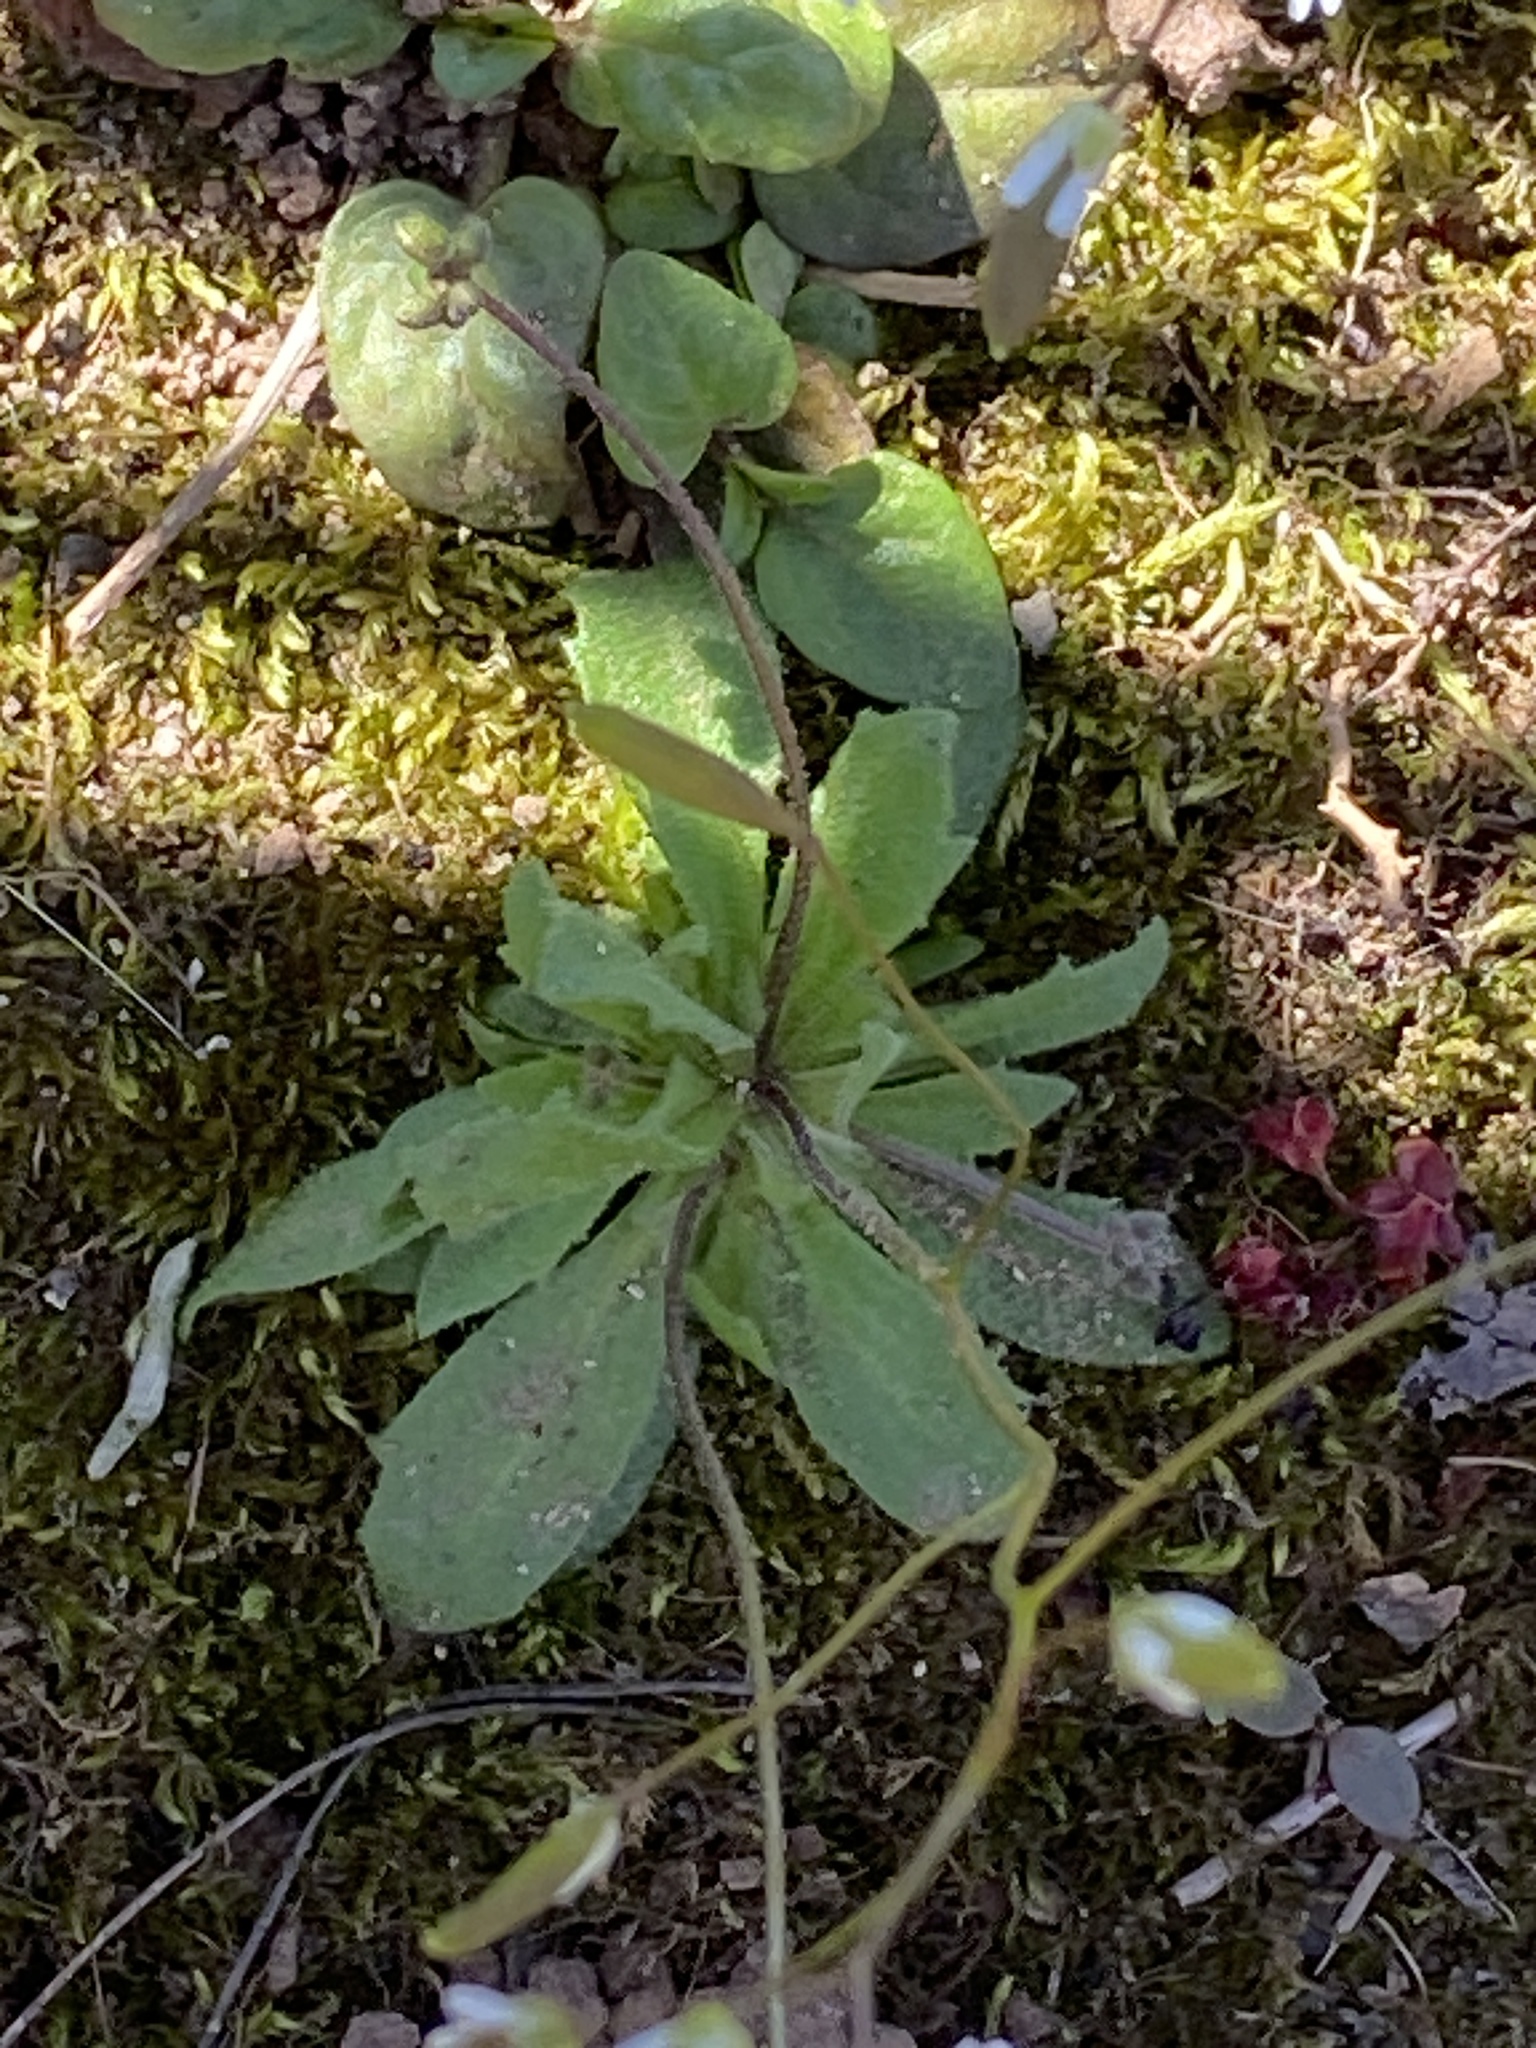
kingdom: Plantae
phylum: Tracheophyta
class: Magnoliopsida
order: Brassicales
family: Brassicaceae
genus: Draba
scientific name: Draba verna
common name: Spring draba
